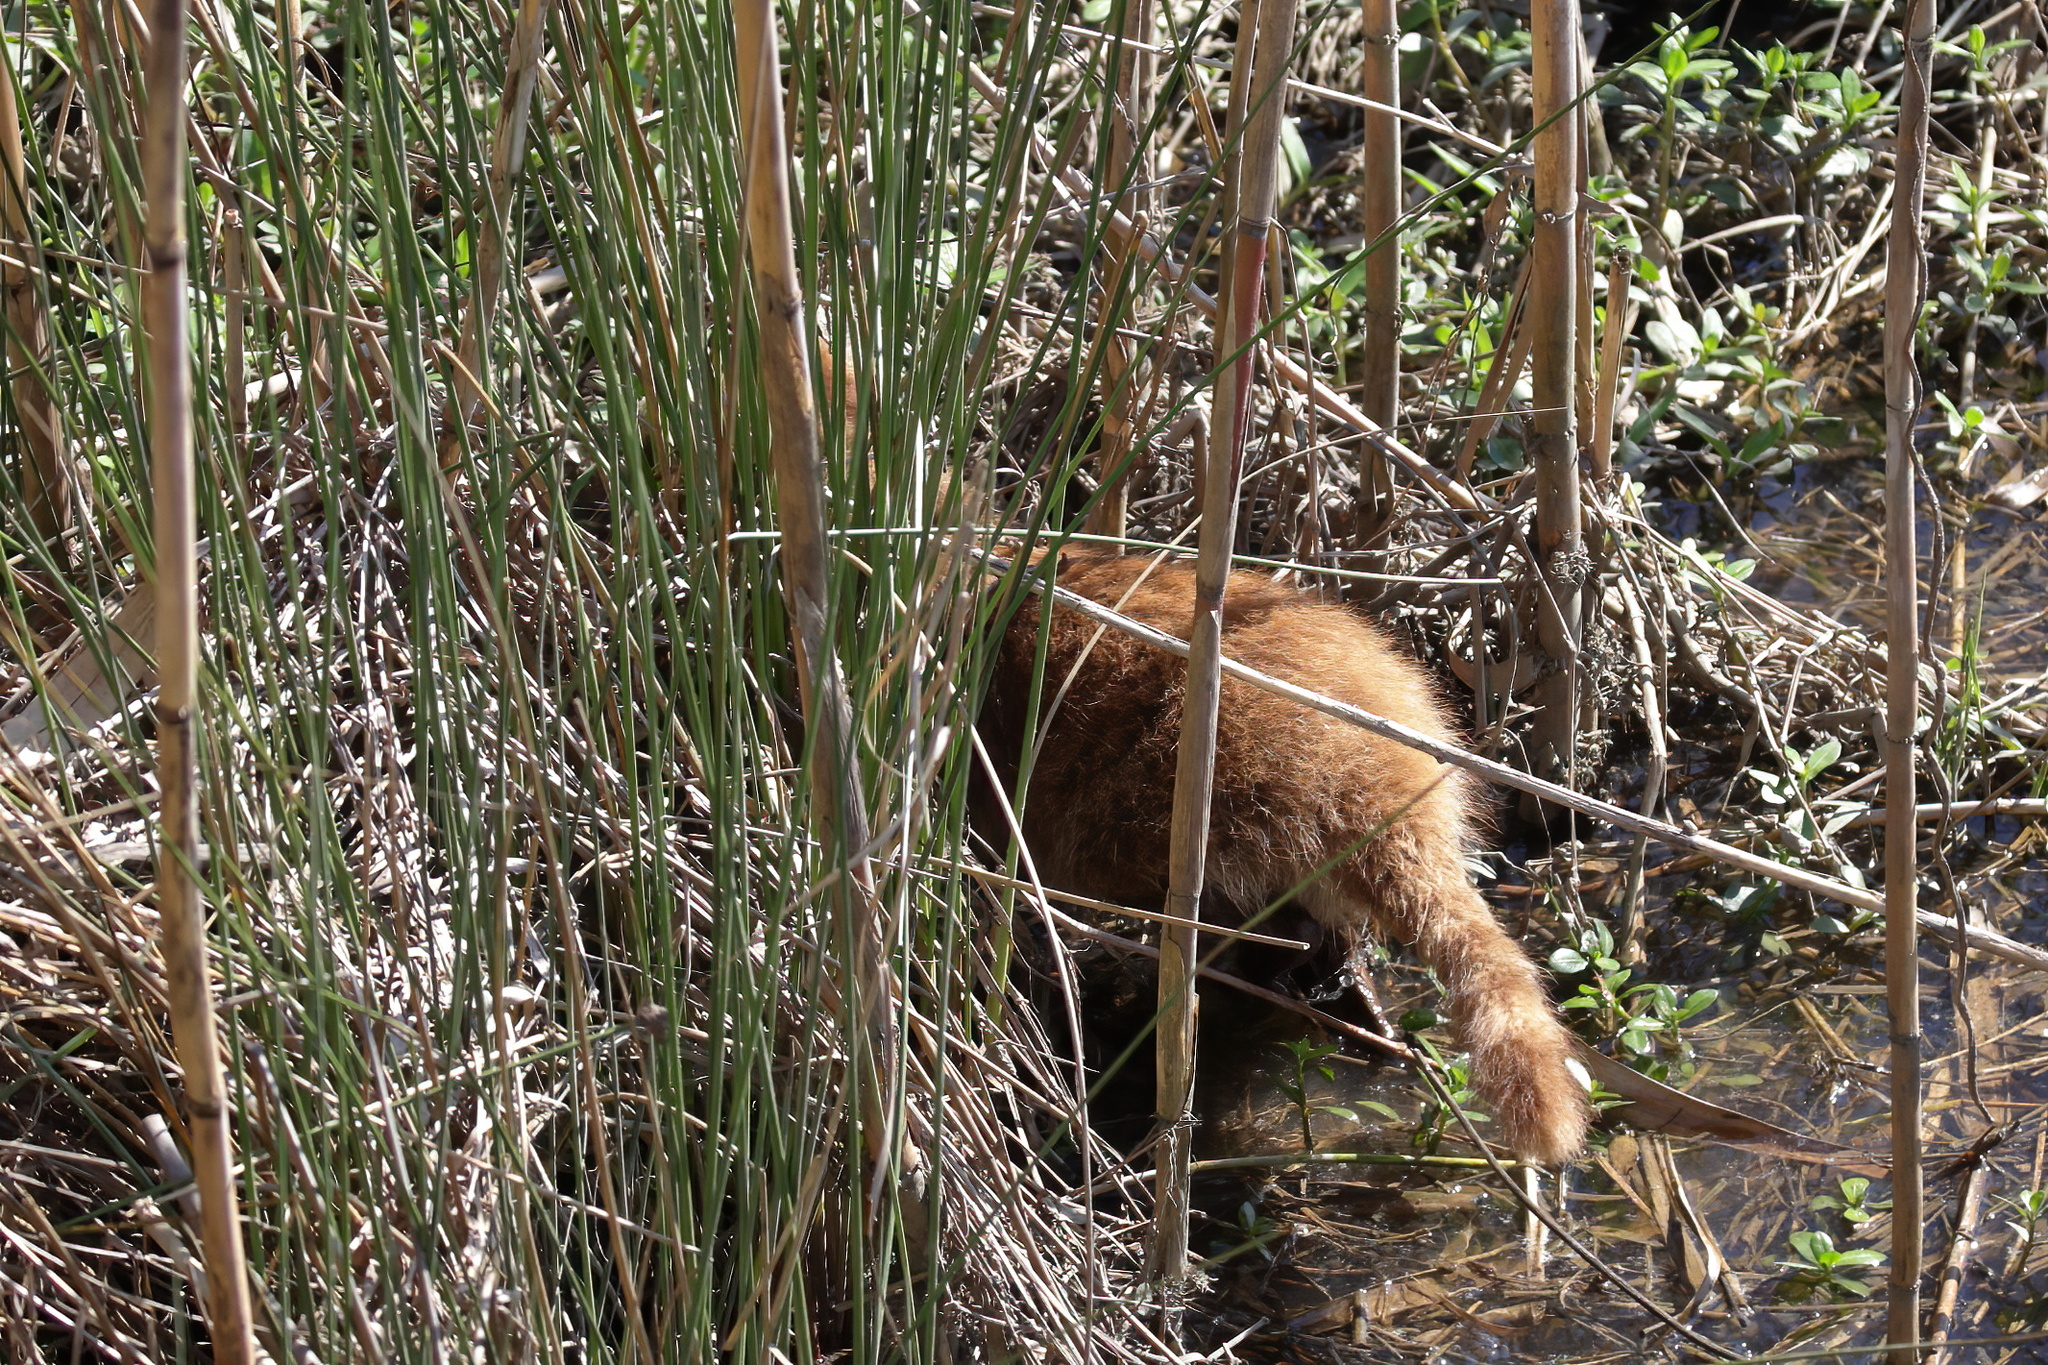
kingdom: Animalia
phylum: Chordata
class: Mammalia
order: Carnivora
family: Procyonidae
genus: Procyon
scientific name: Procyon lotor
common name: Raccoon
